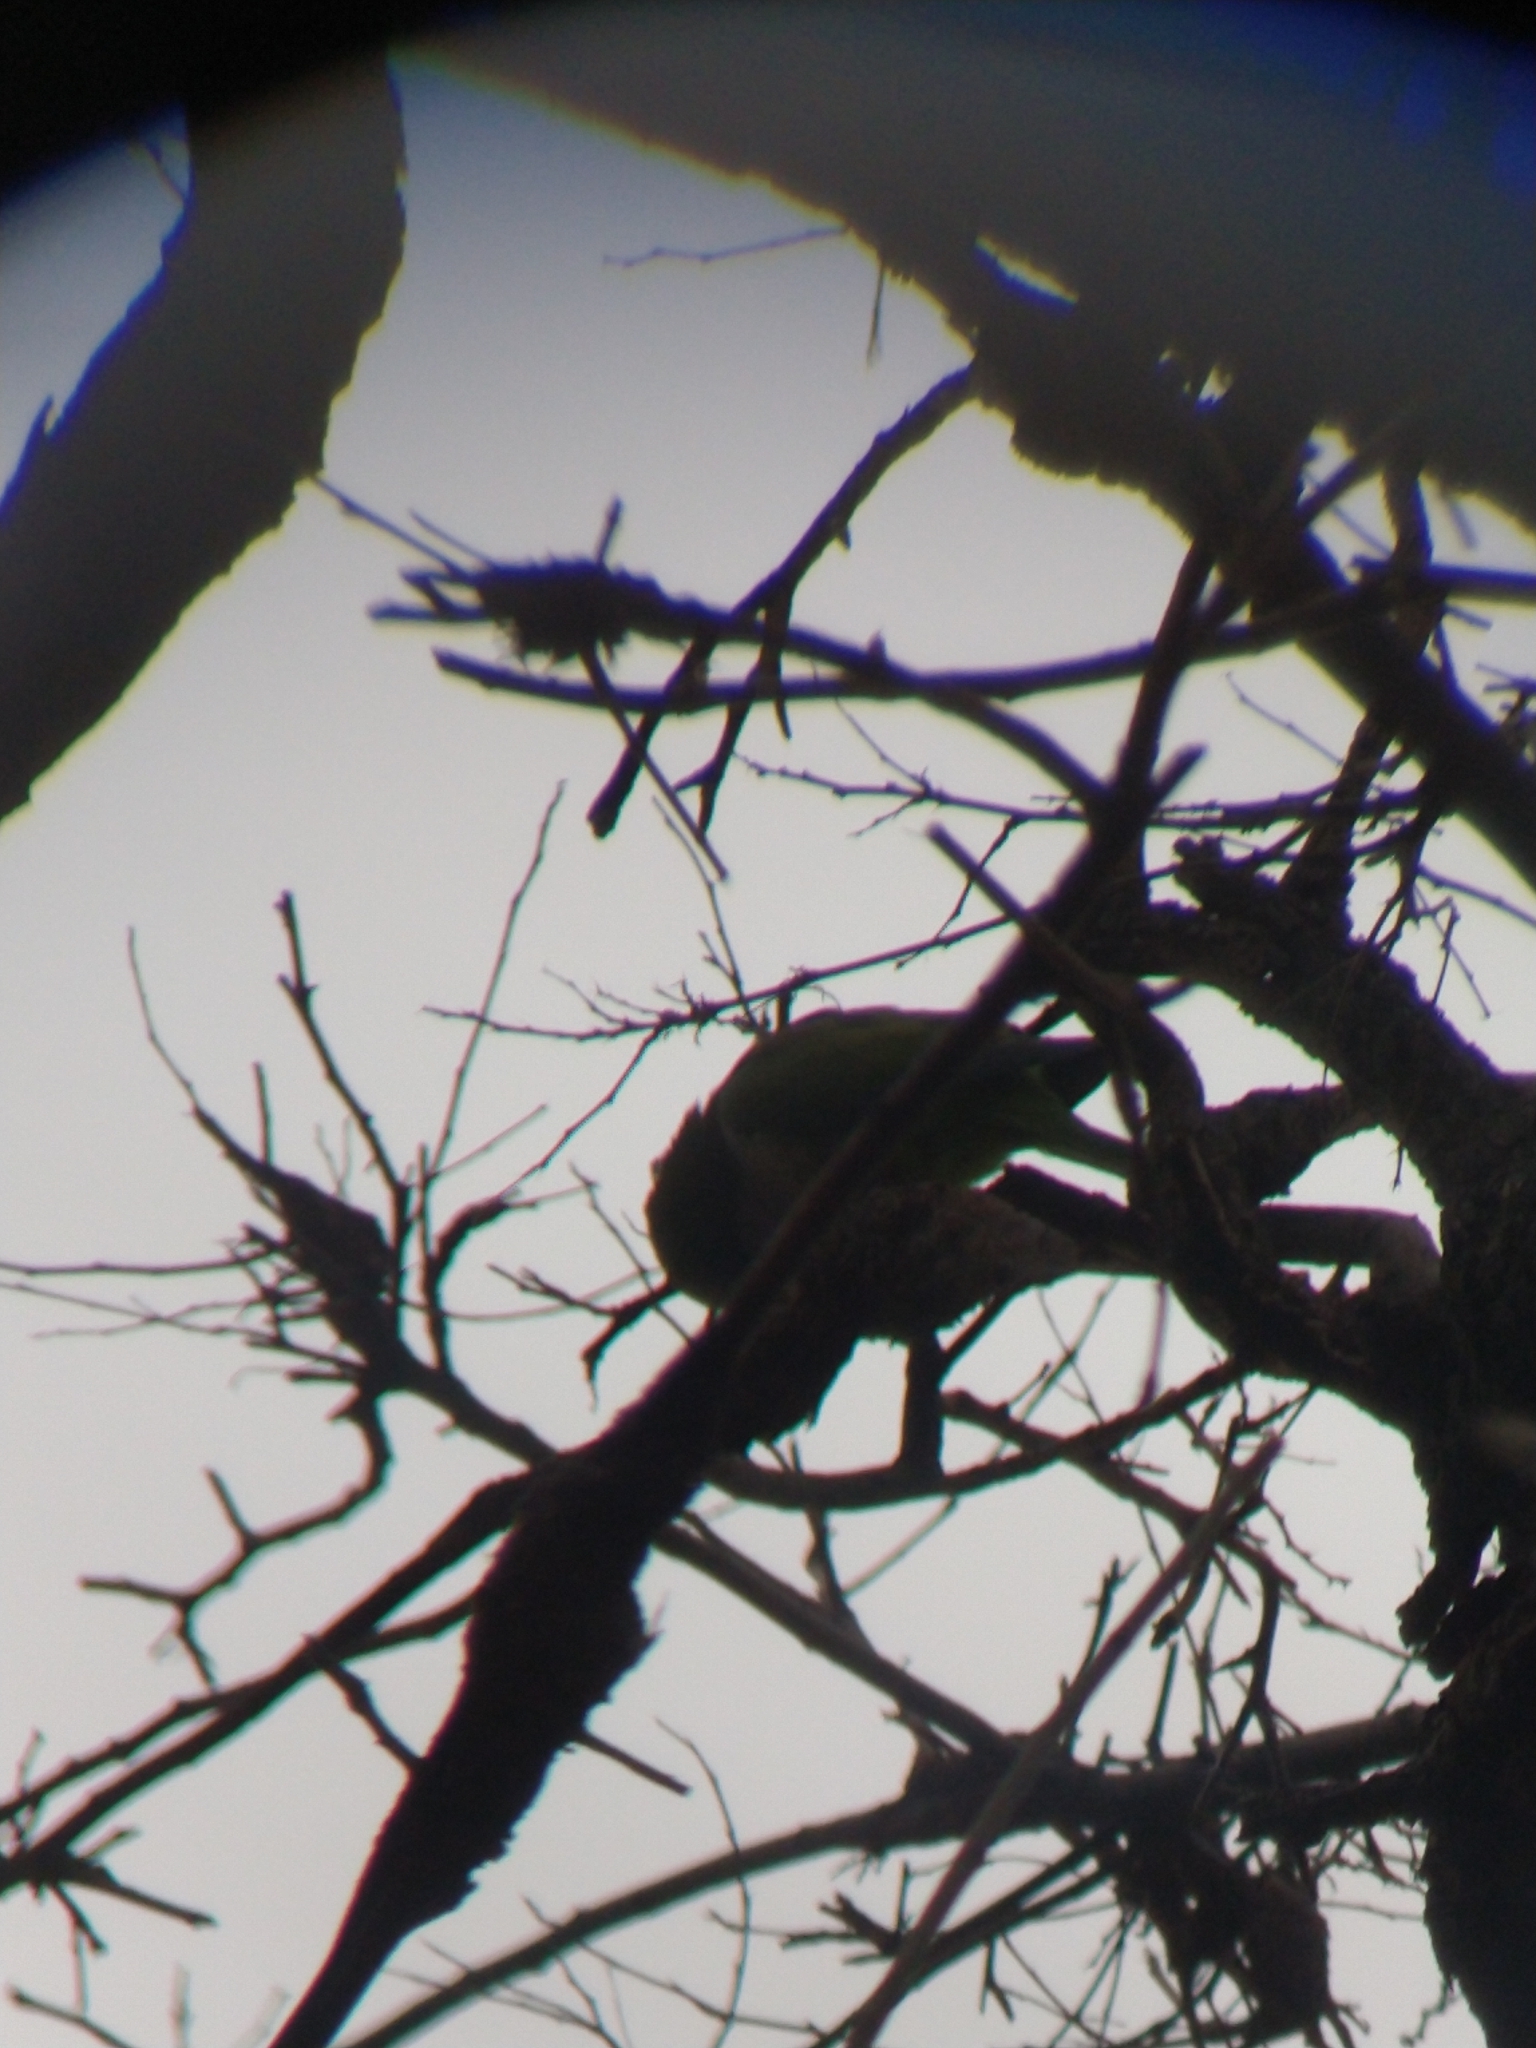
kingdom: Animalia
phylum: Chordata
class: Aves
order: Psittaciformes
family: Psittacidae
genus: Myiopsitta
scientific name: Myiopsitta monachus
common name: Monk parakeet
